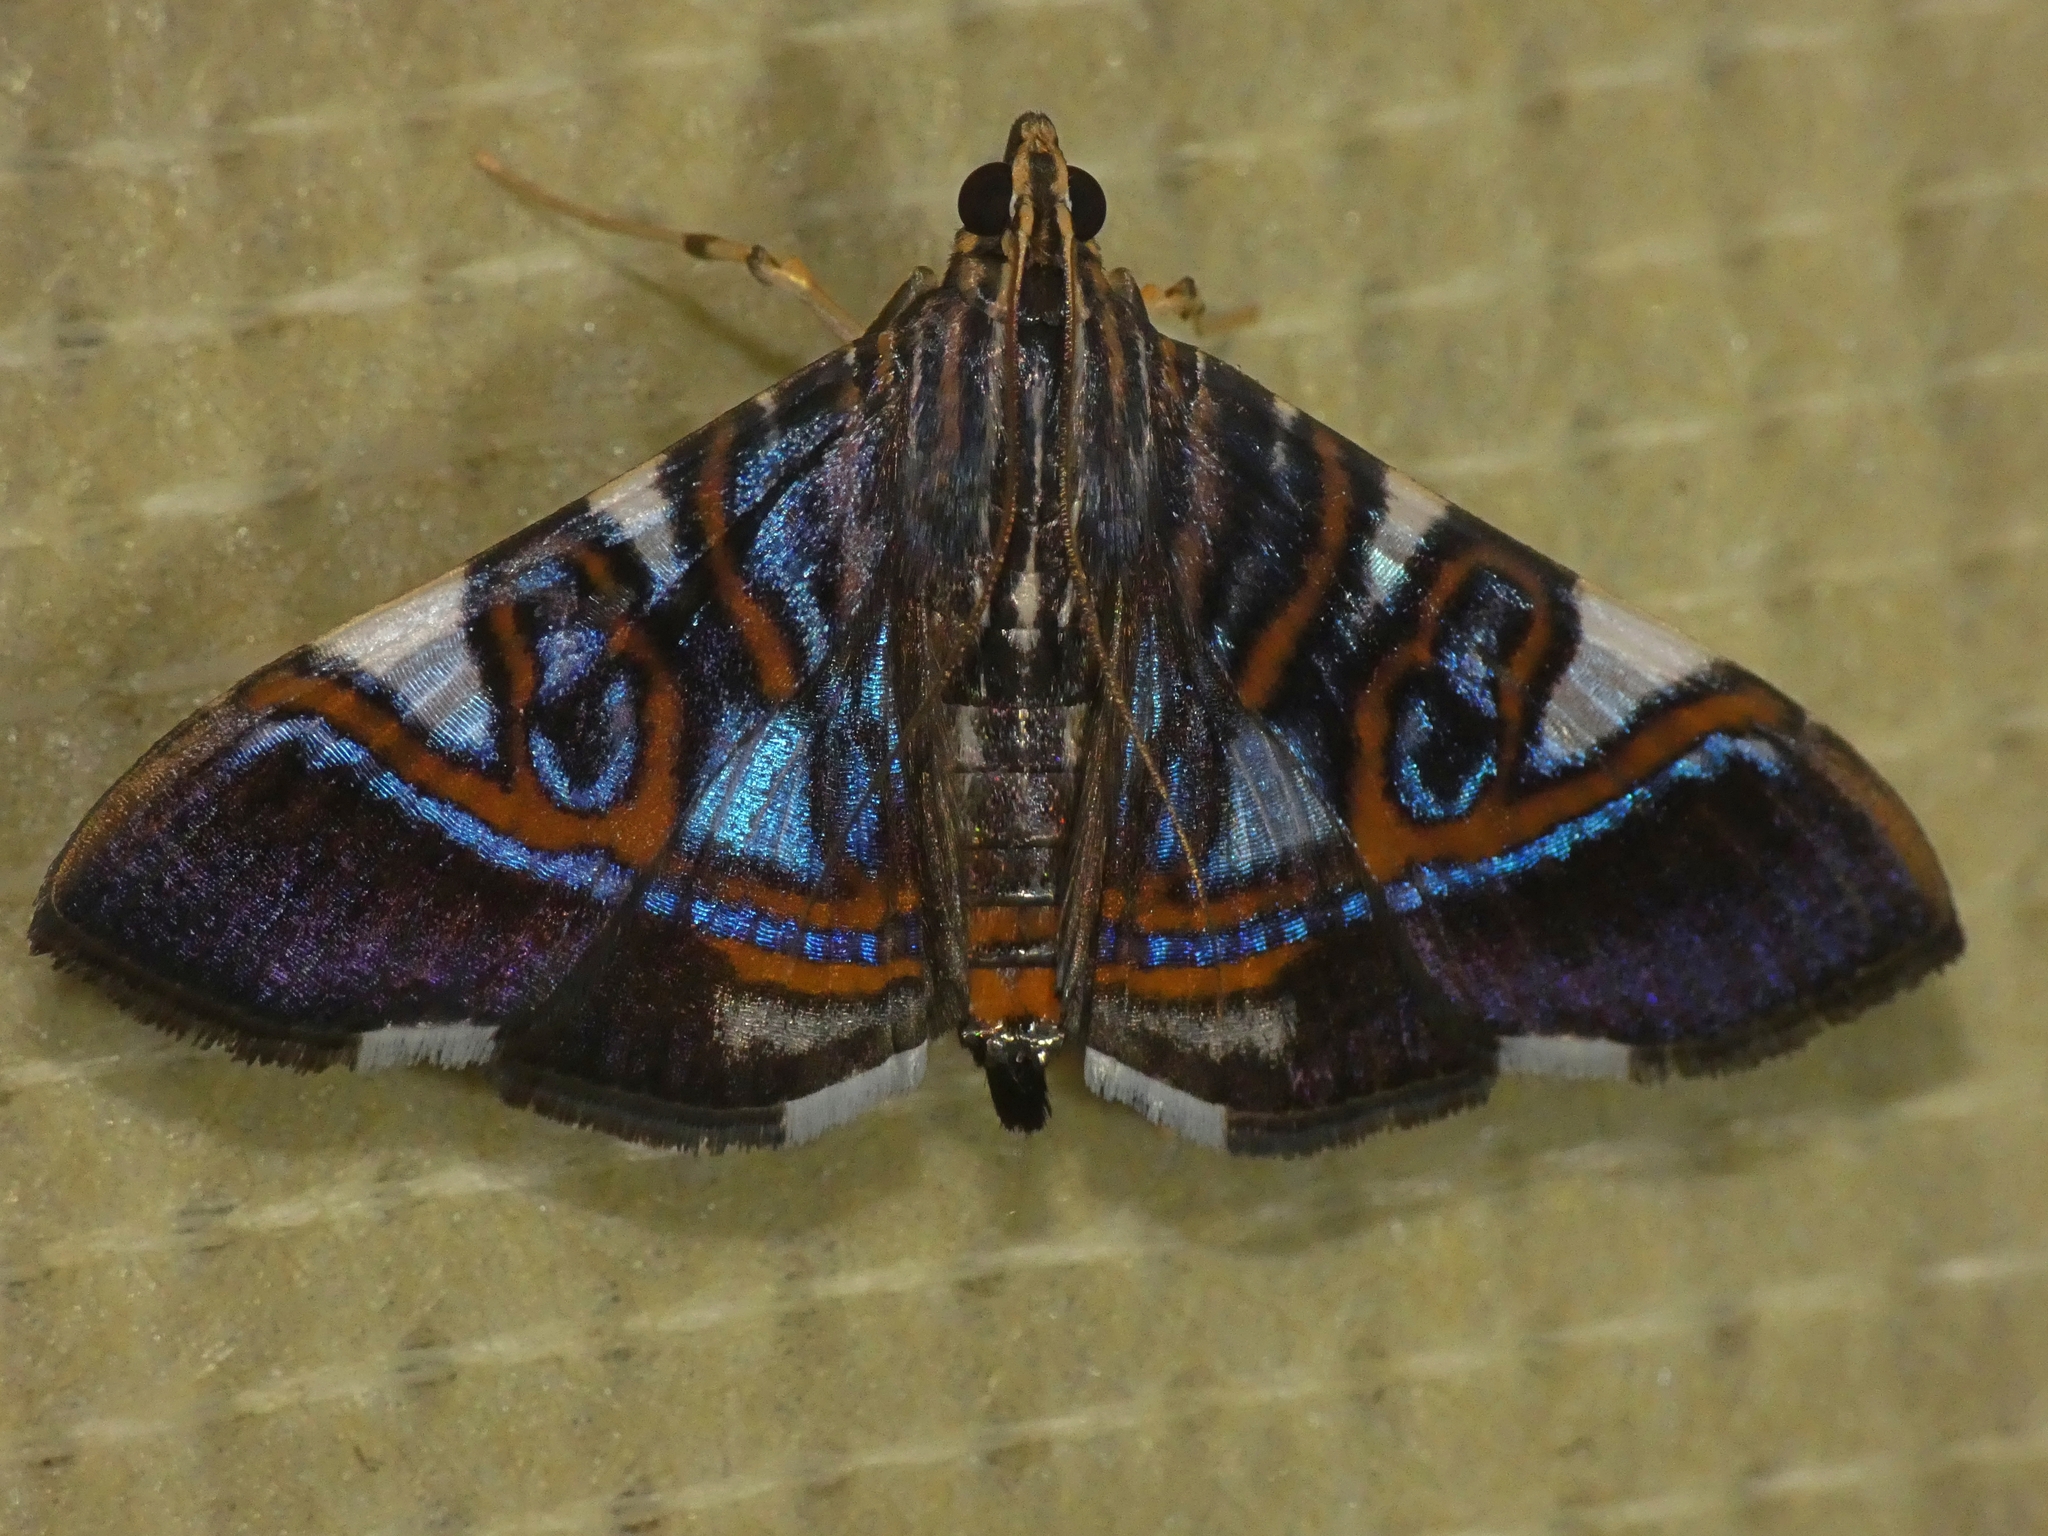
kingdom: Animalia
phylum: Arthropoda
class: Insecta
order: Lepidoptera
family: Crambidae
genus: Glyphodes
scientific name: Glyphodes margaritaria
